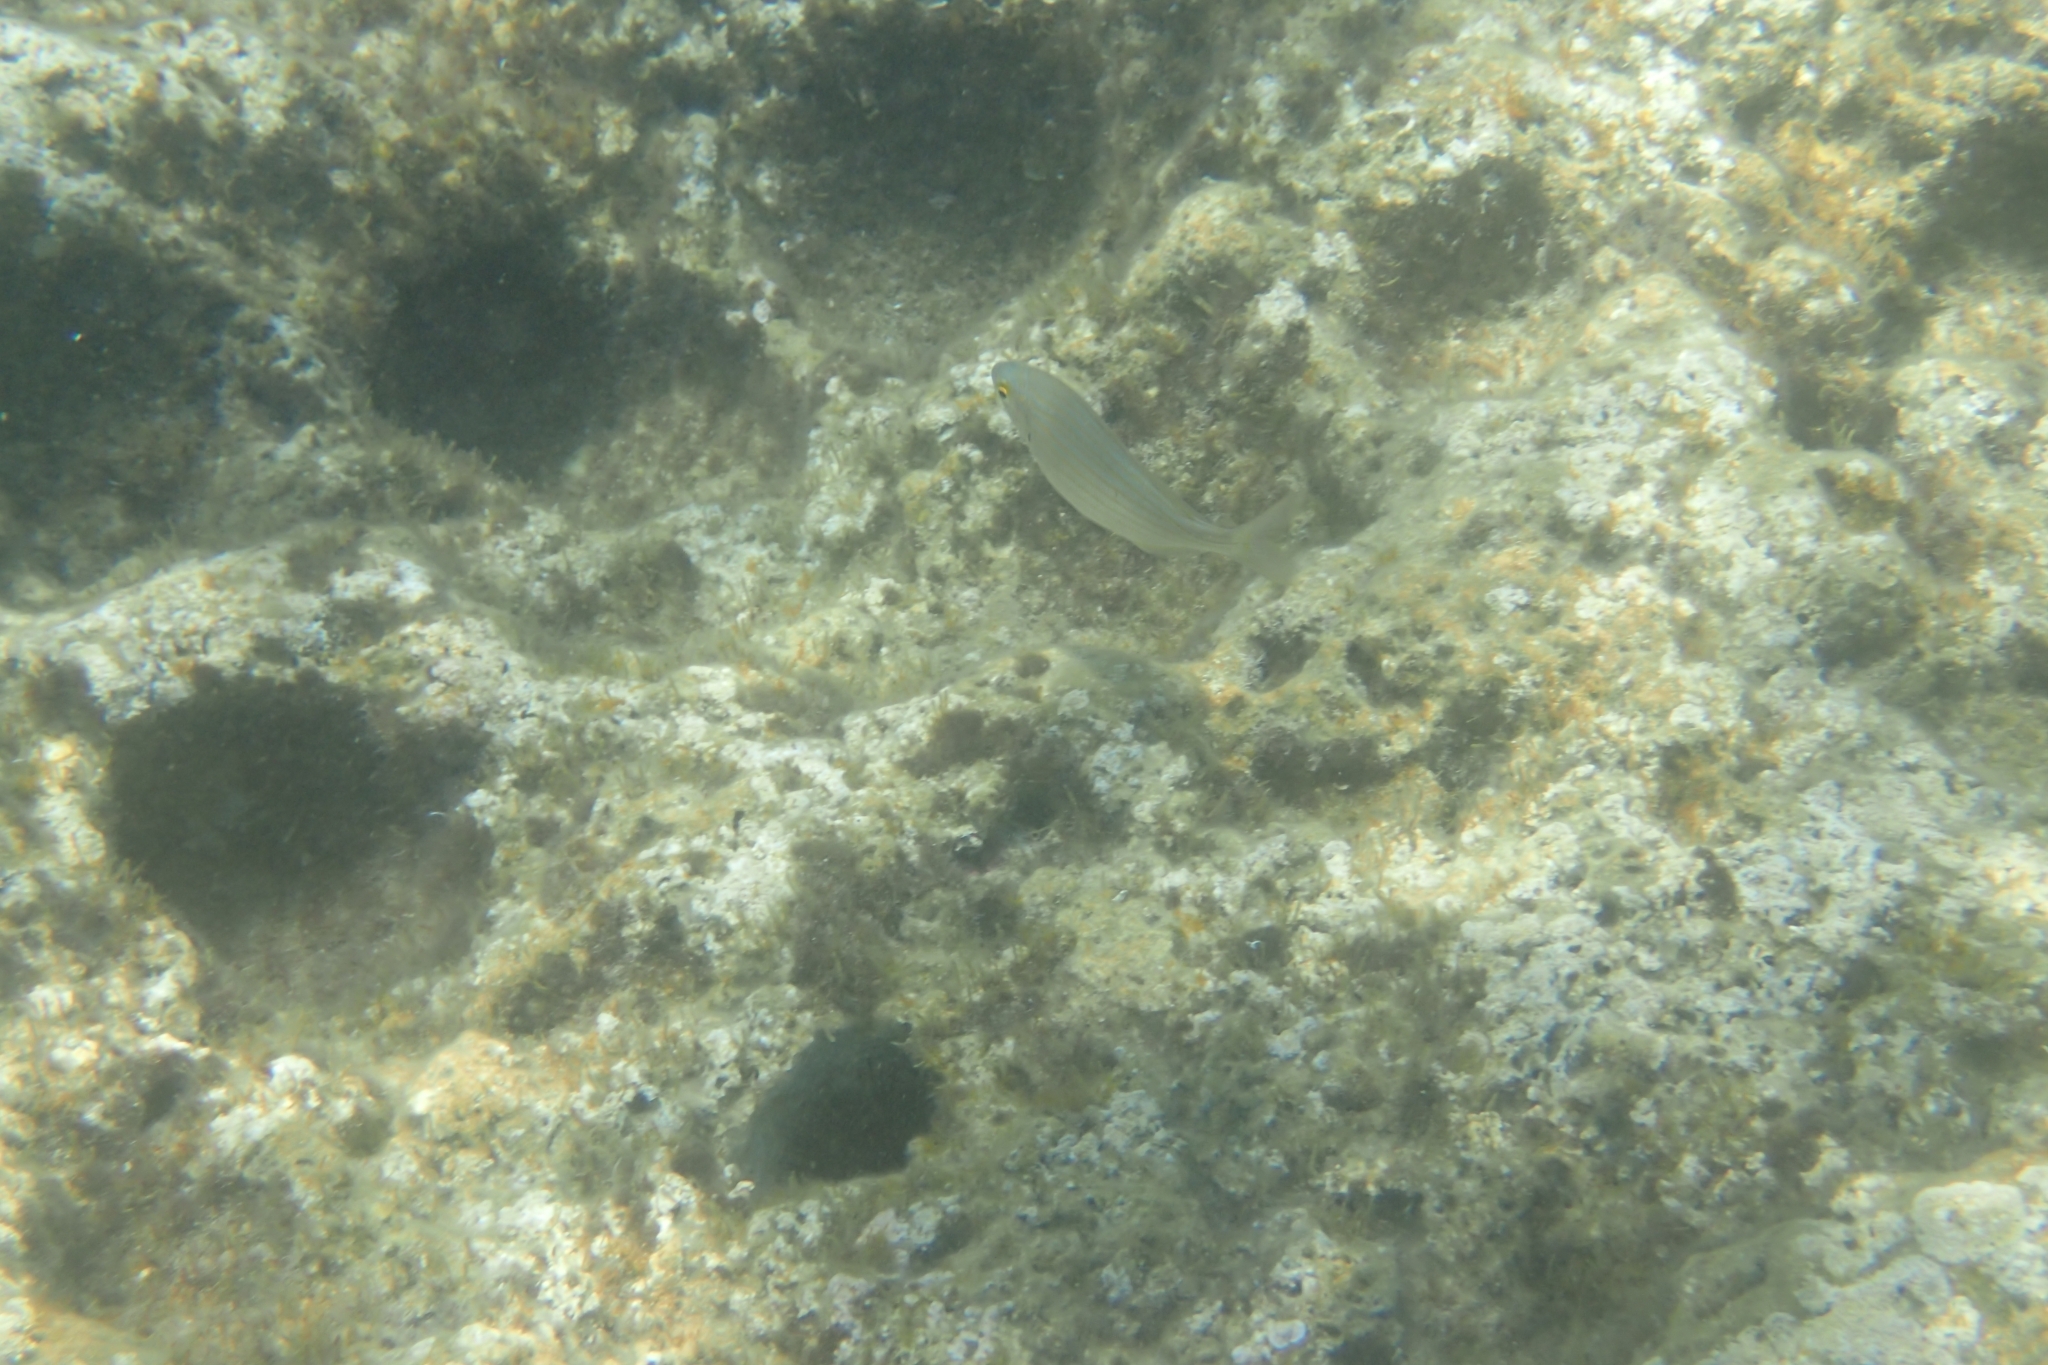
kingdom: Animalia
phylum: Chordata
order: Perciformes
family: Sparidae
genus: Sarpa
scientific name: Sarpa salpa
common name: Salema
